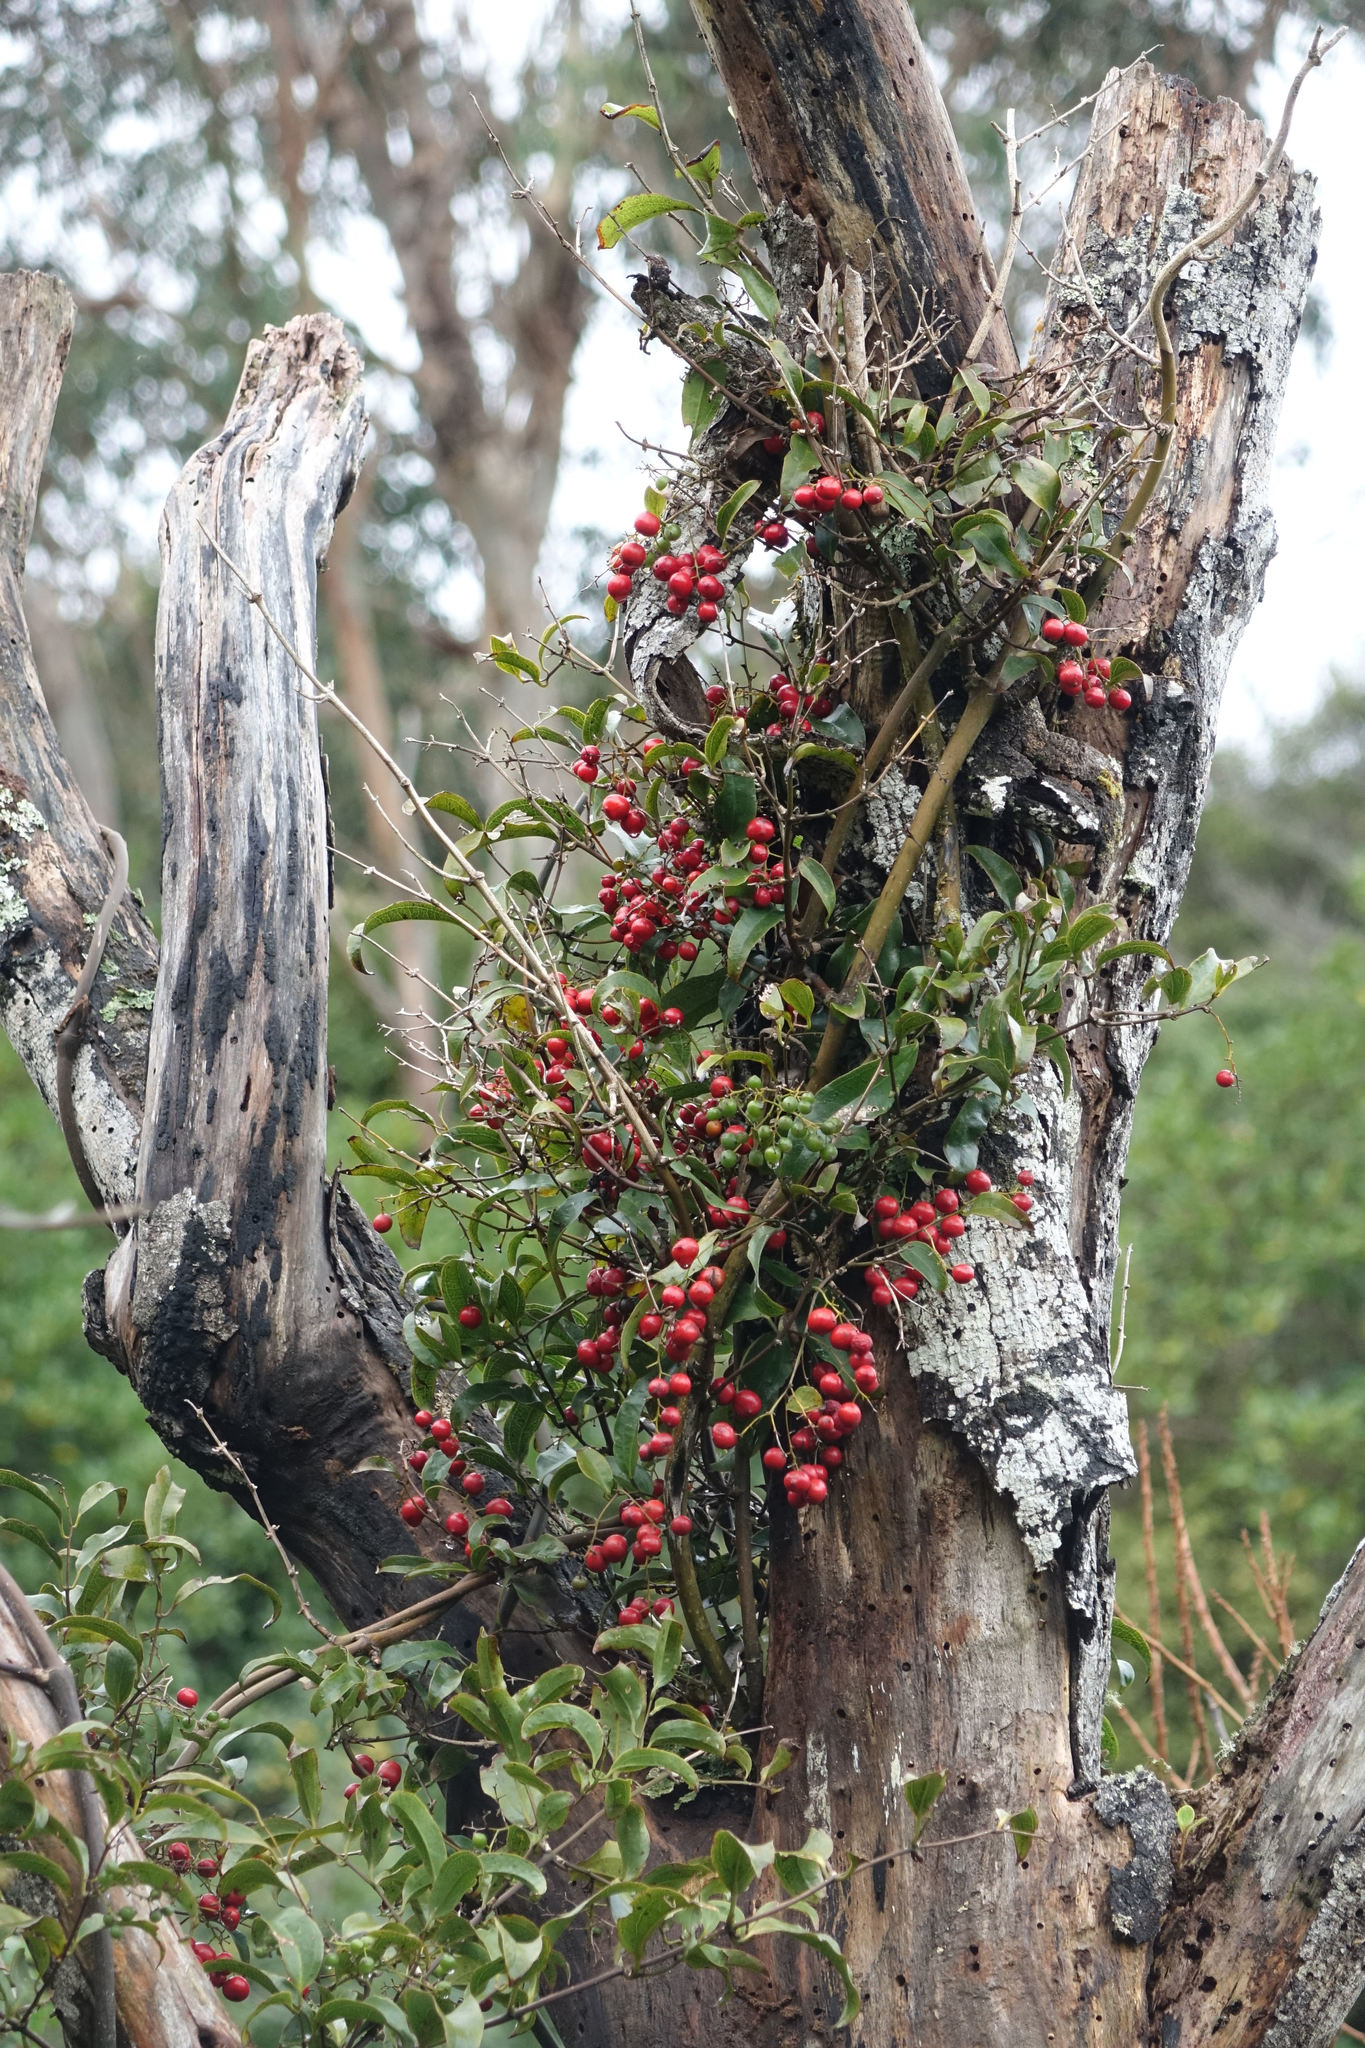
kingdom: Plantae
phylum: Tracheophyta
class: Liliopsida
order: Liliales
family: Ripogonaceae
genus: Ripogonum
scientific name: Ripogonum scandens
